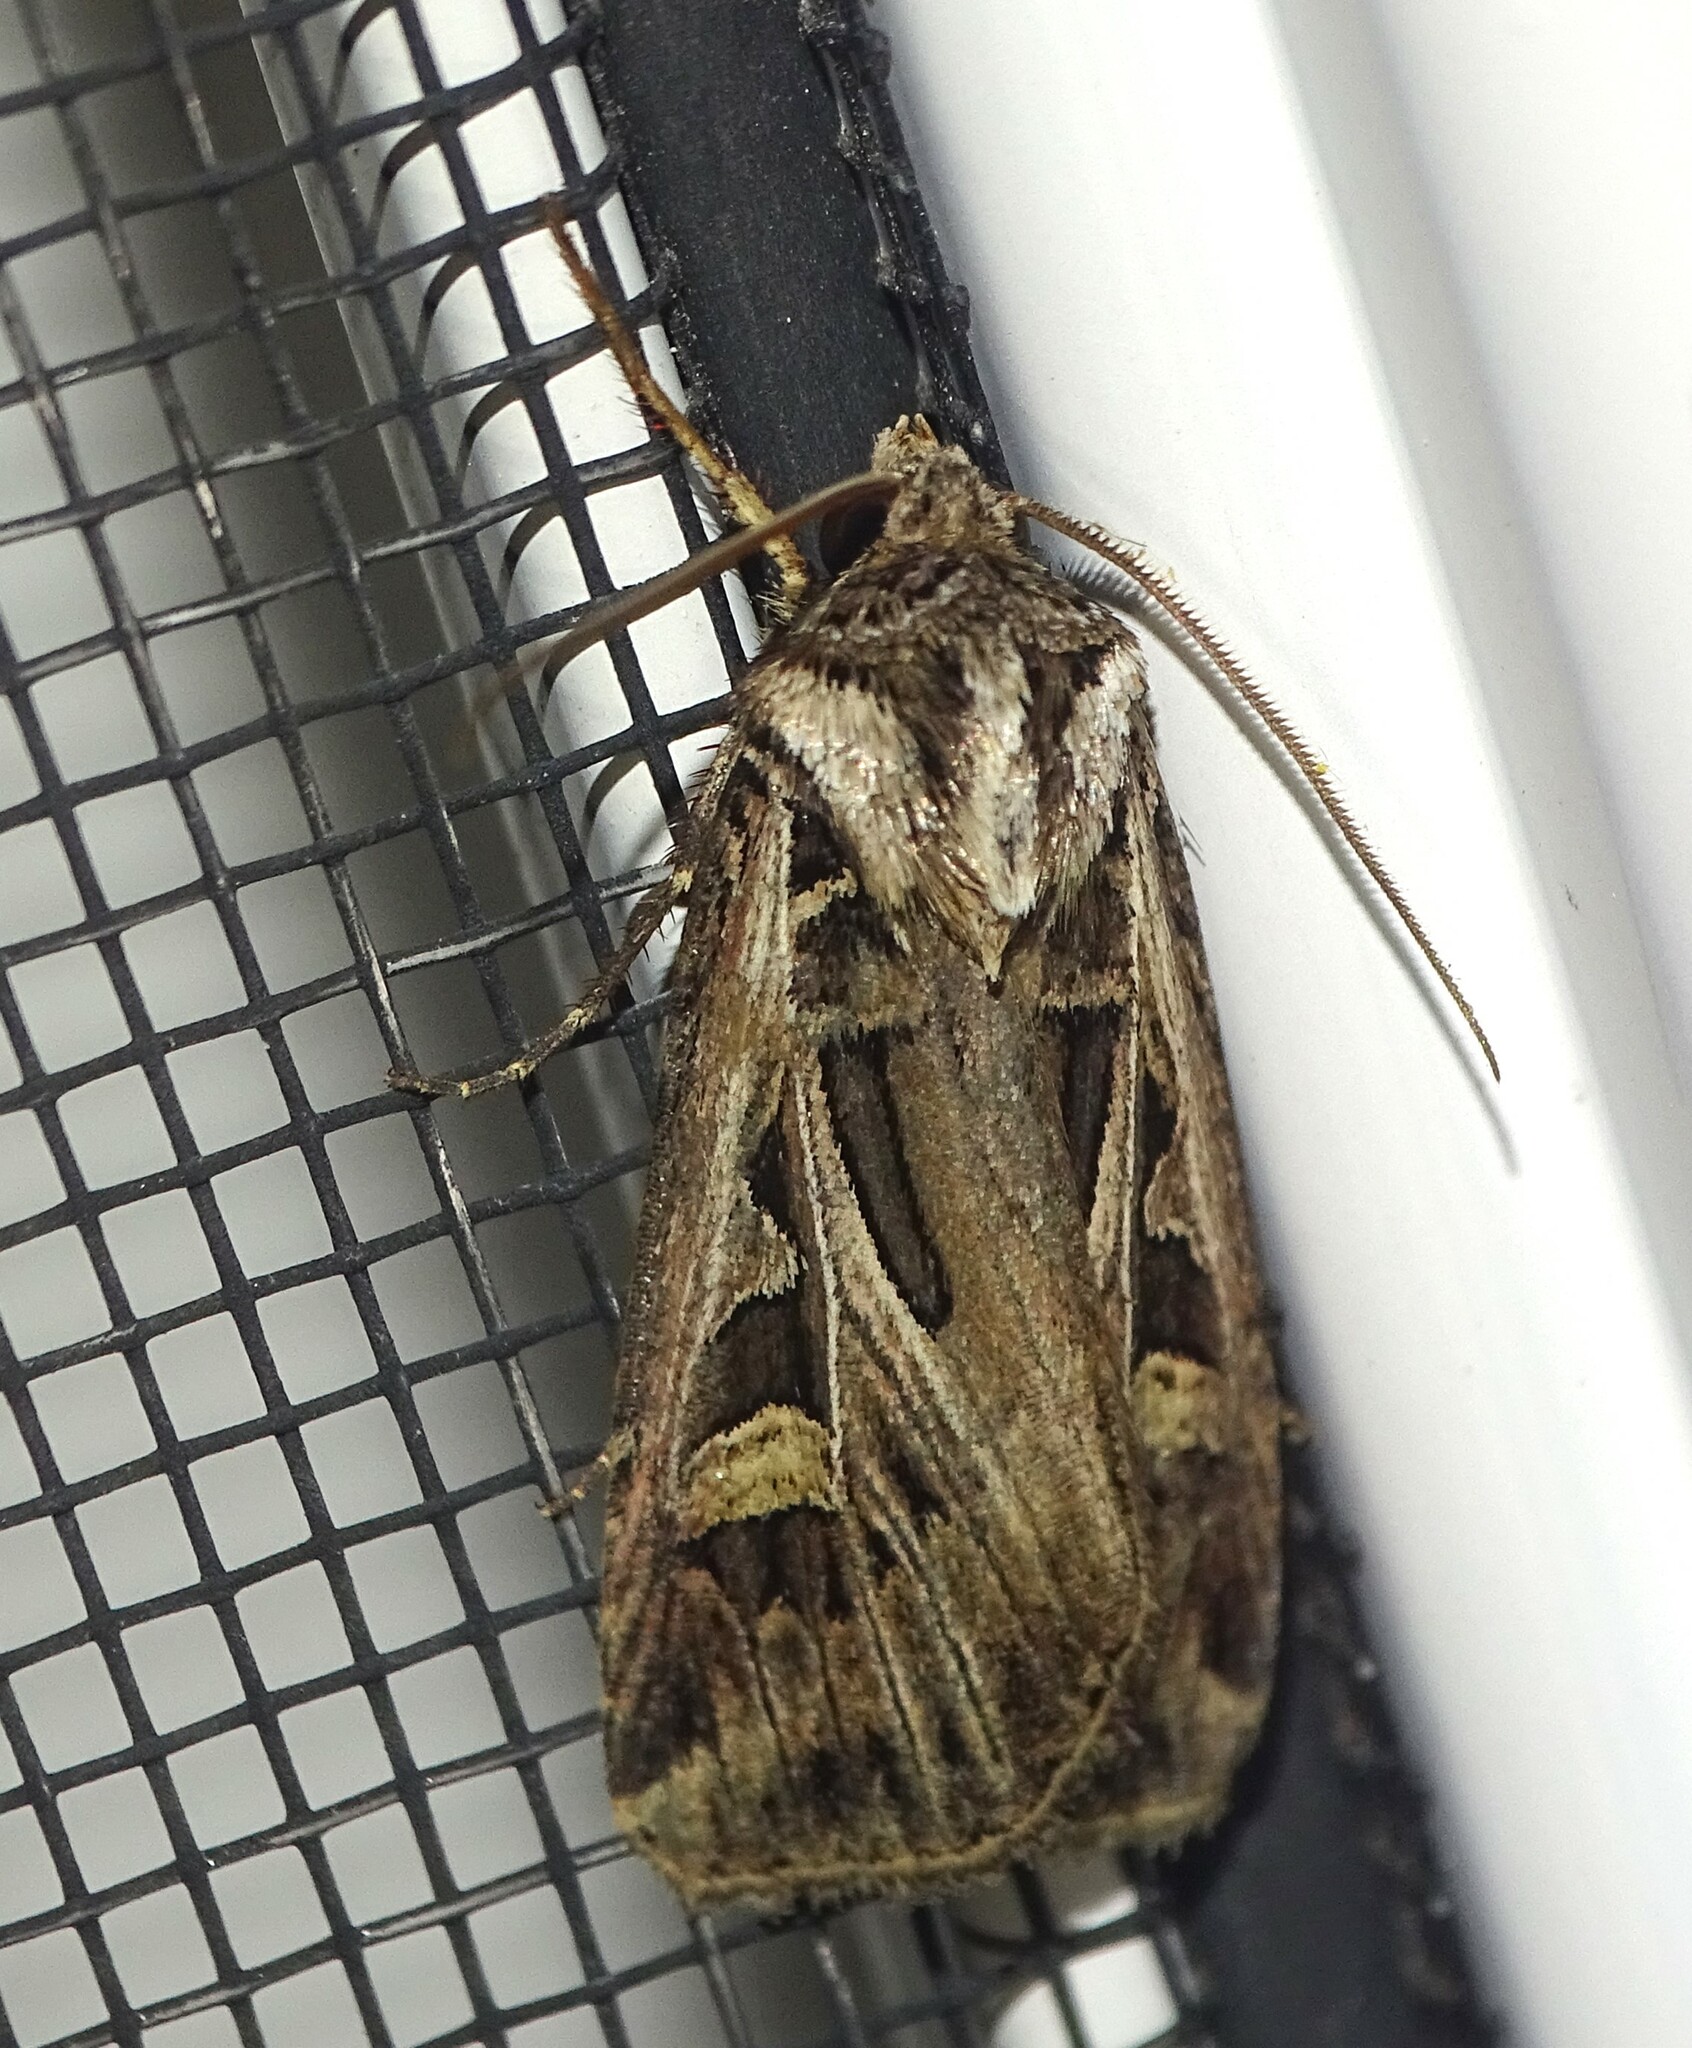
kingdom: Animalia
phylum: Arthropoda
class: Insecta
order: Lepidoptera
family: Noctuidae
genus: Feltia
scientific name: Feltia jaculifera
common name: Dingy cutworm moth
